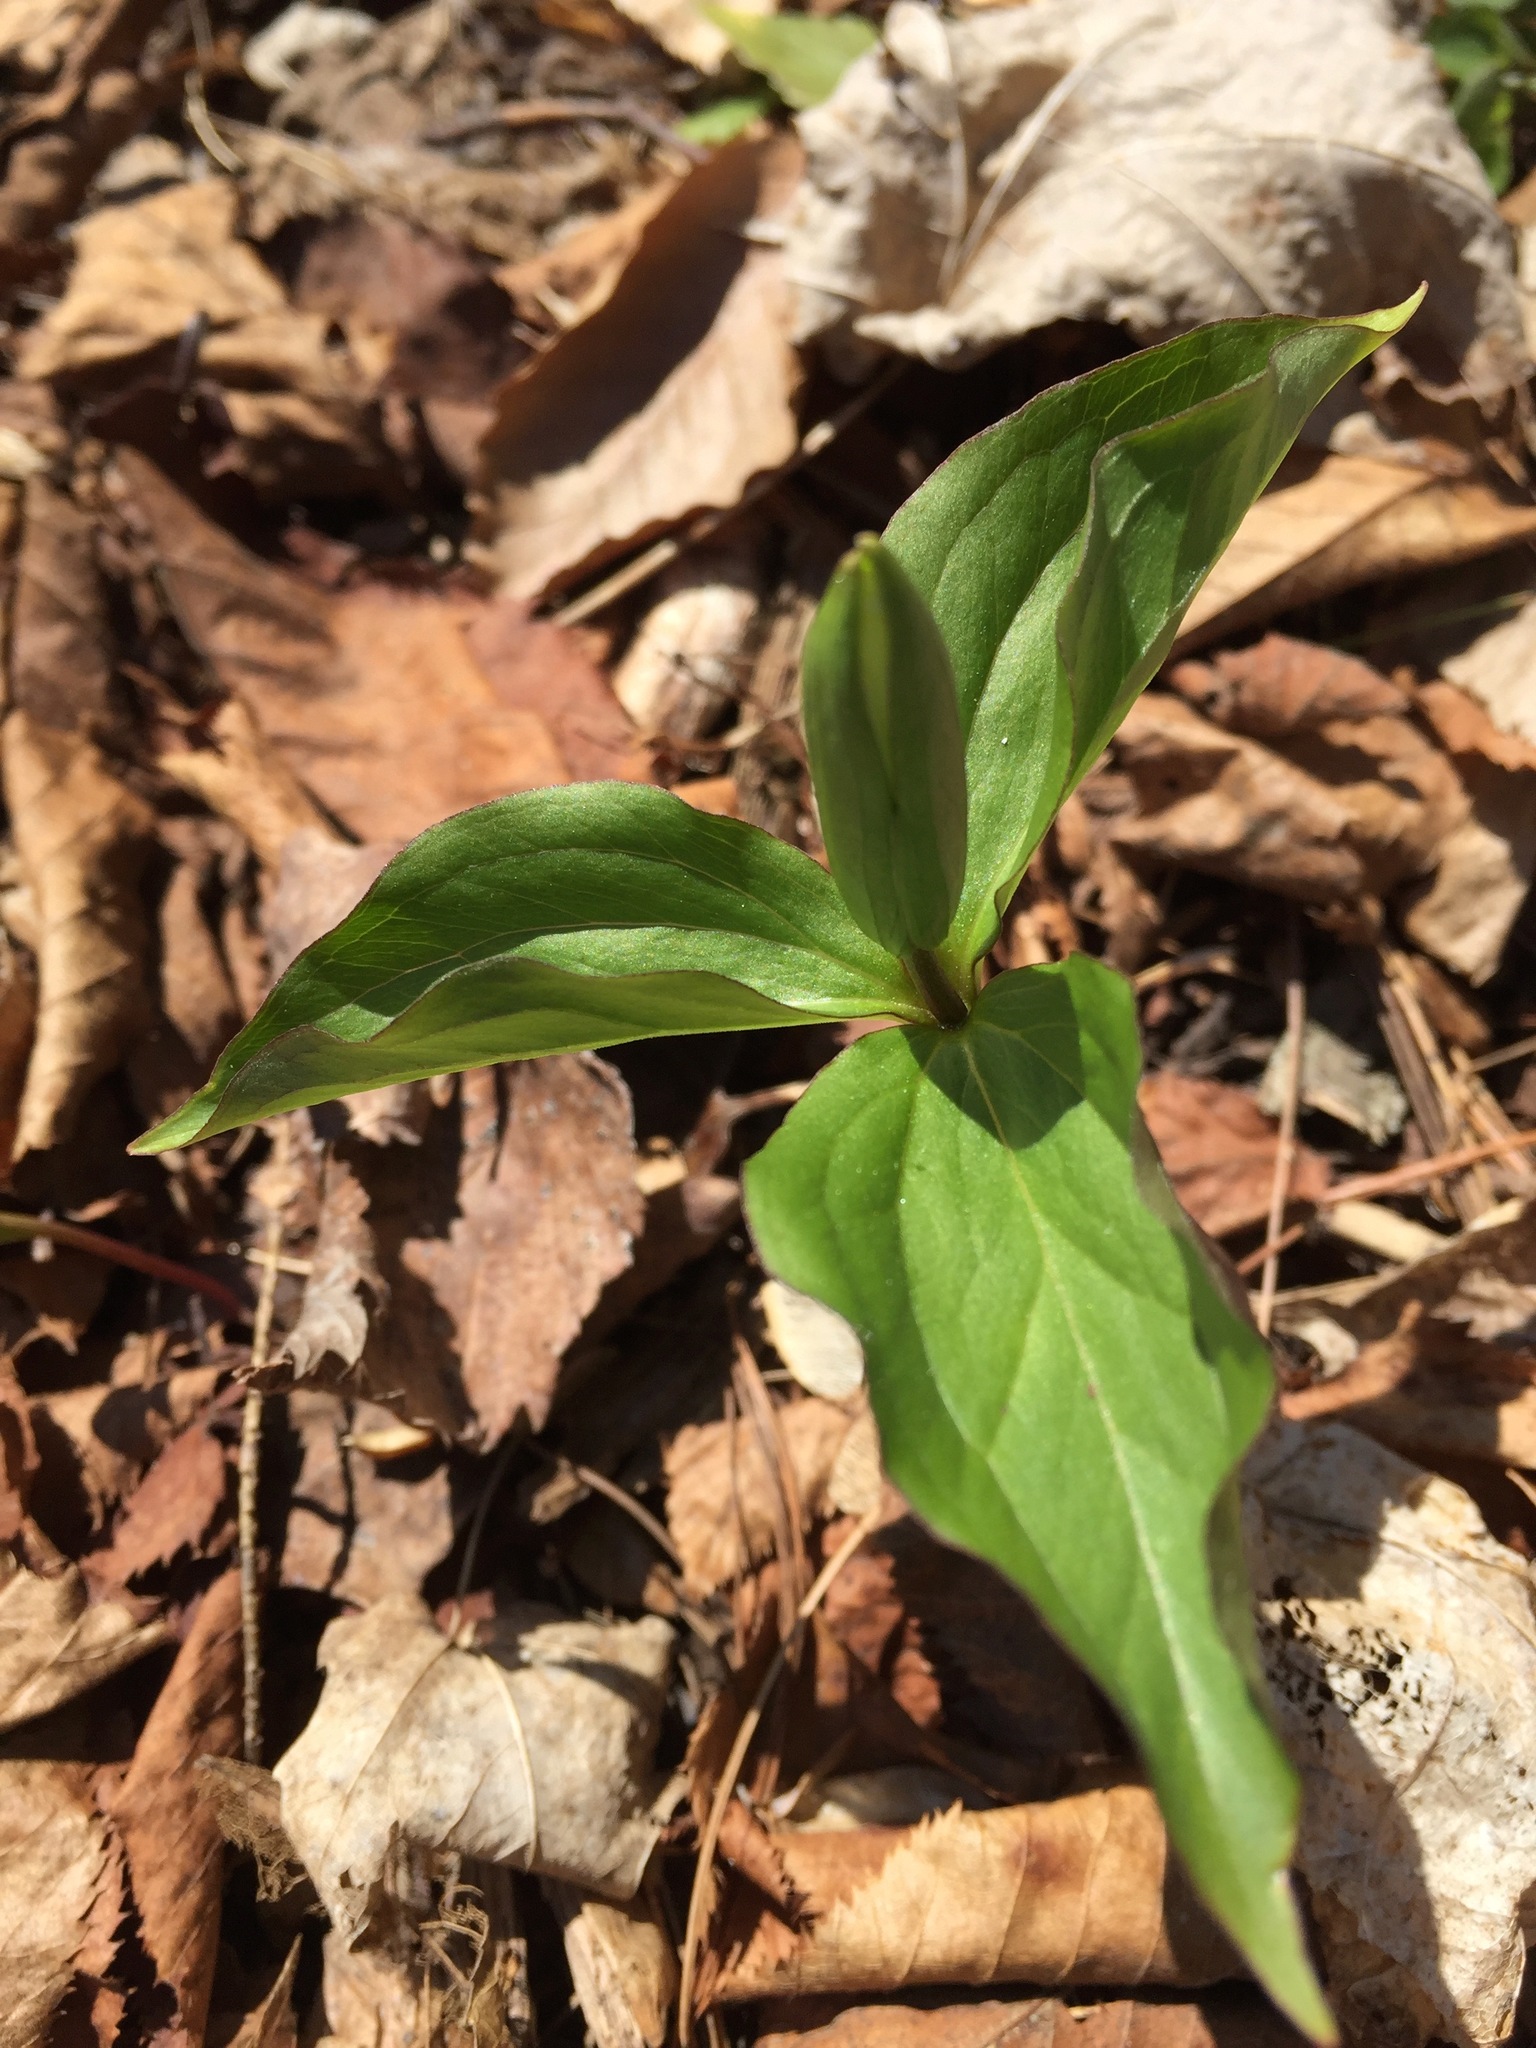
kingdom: Plantae
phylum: Tracheophyta
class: Liliopsida
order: Liliales
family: Melanthiaceae
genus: Trillium
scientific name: Trillium grandiflorum
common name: Great white trillium
